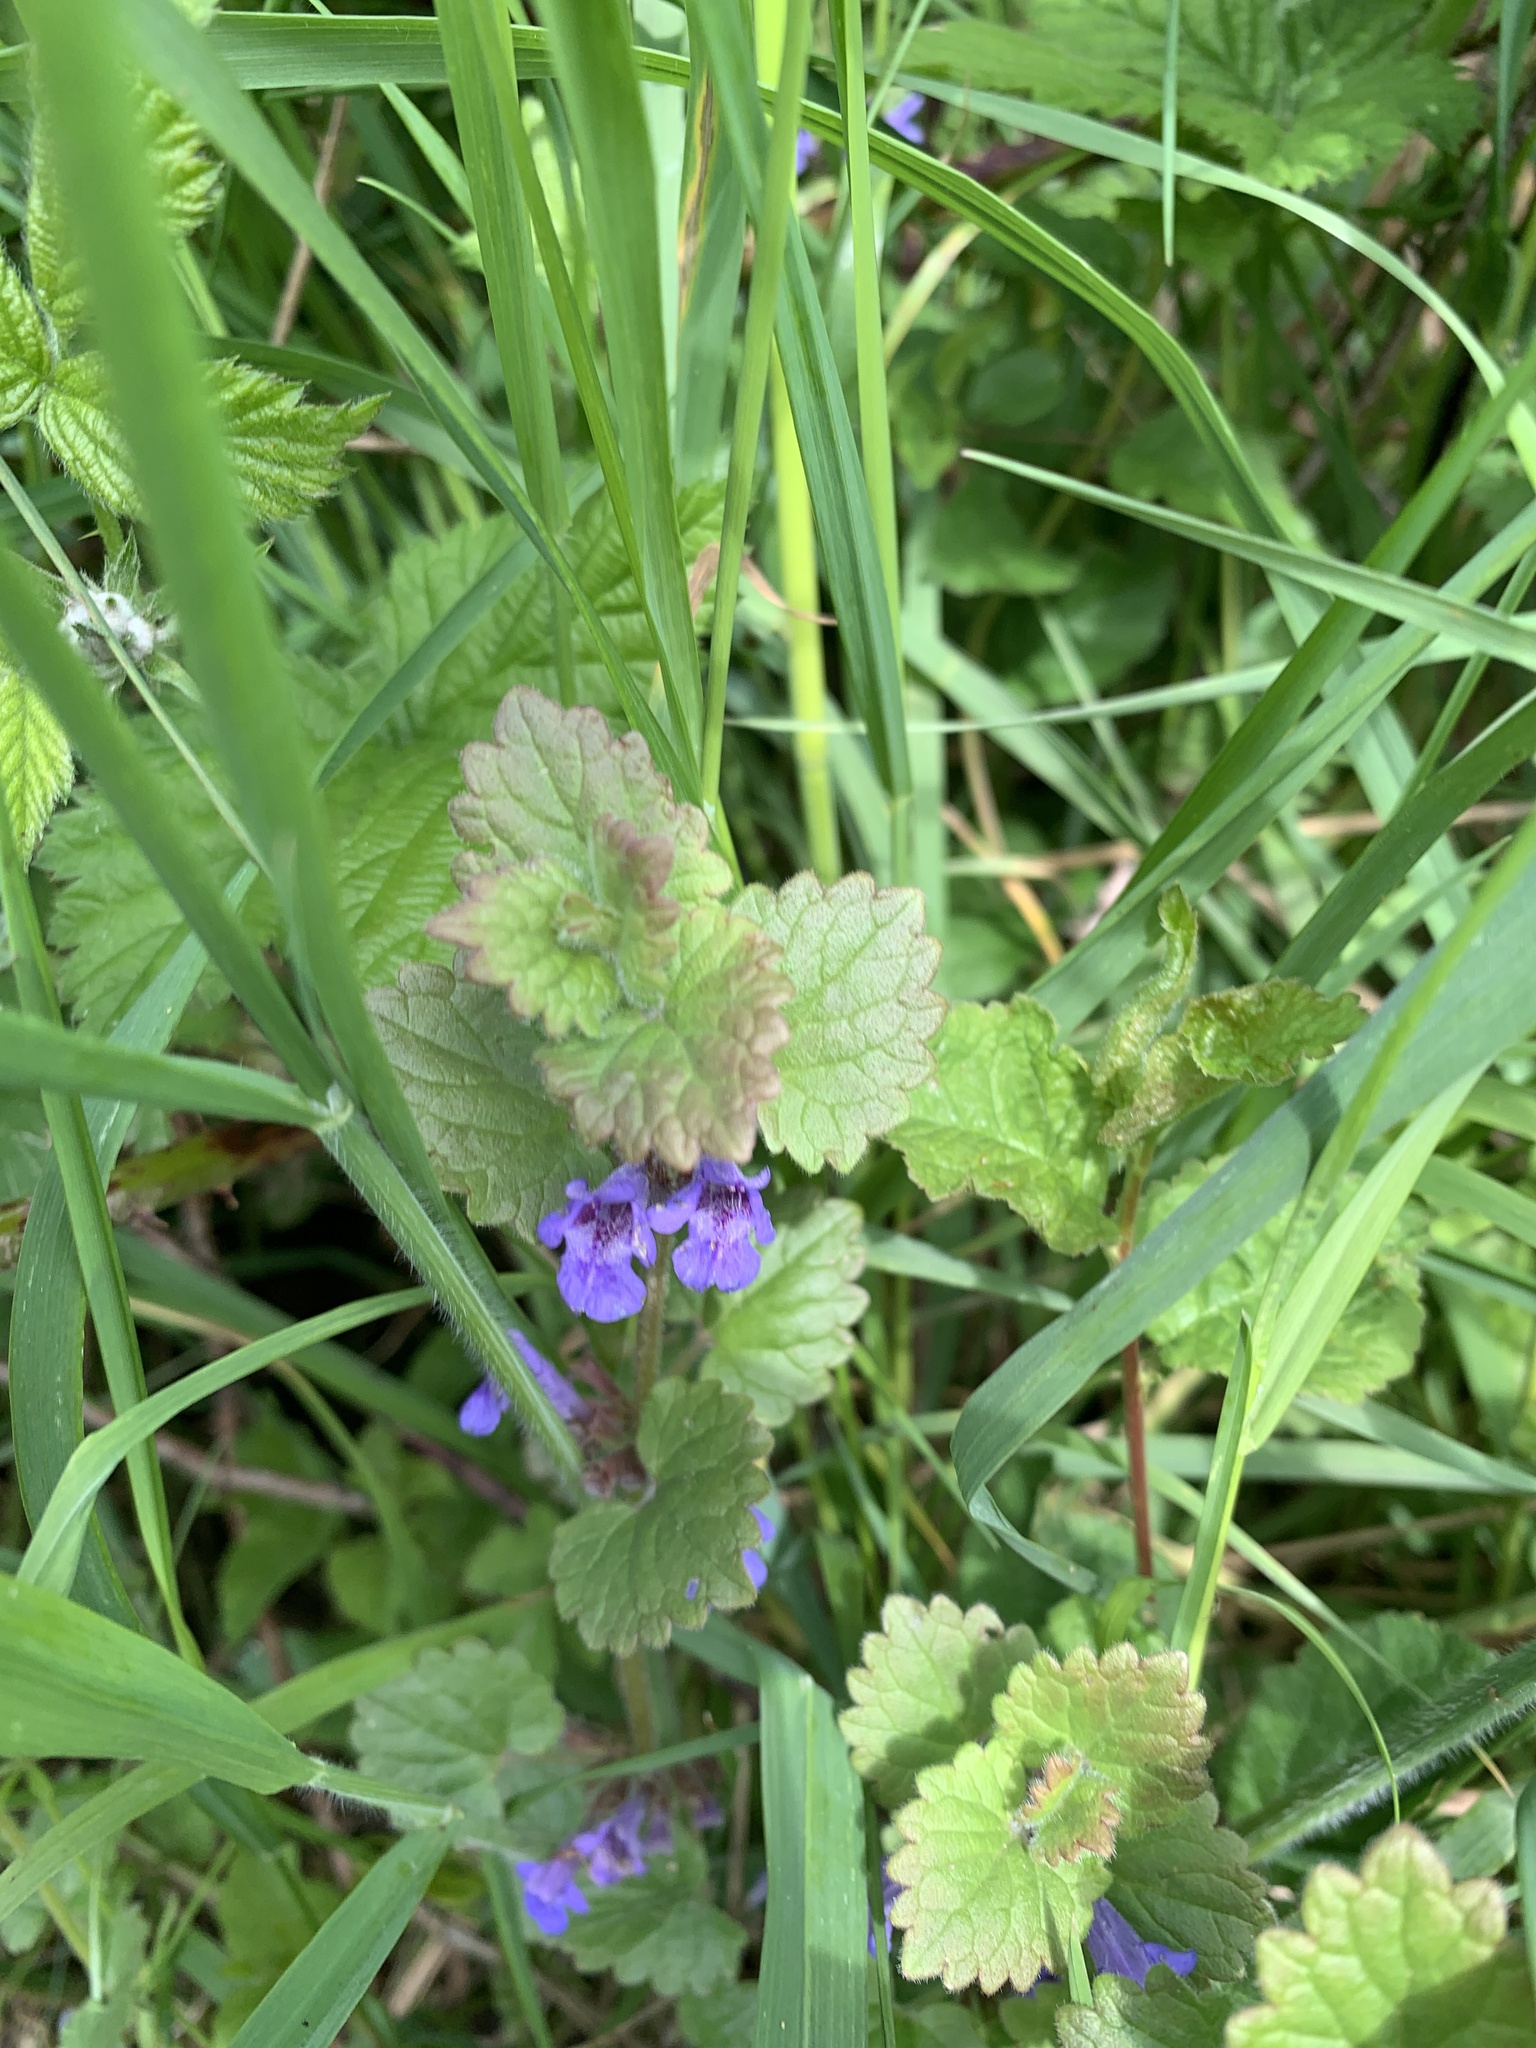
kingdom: Plantae
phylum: Tracheophyta
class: Magnoliopsida
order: Lamiales
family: Lamiaceae
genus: Glechoma
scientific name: Glechoma hederacea
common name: Ground ivy
